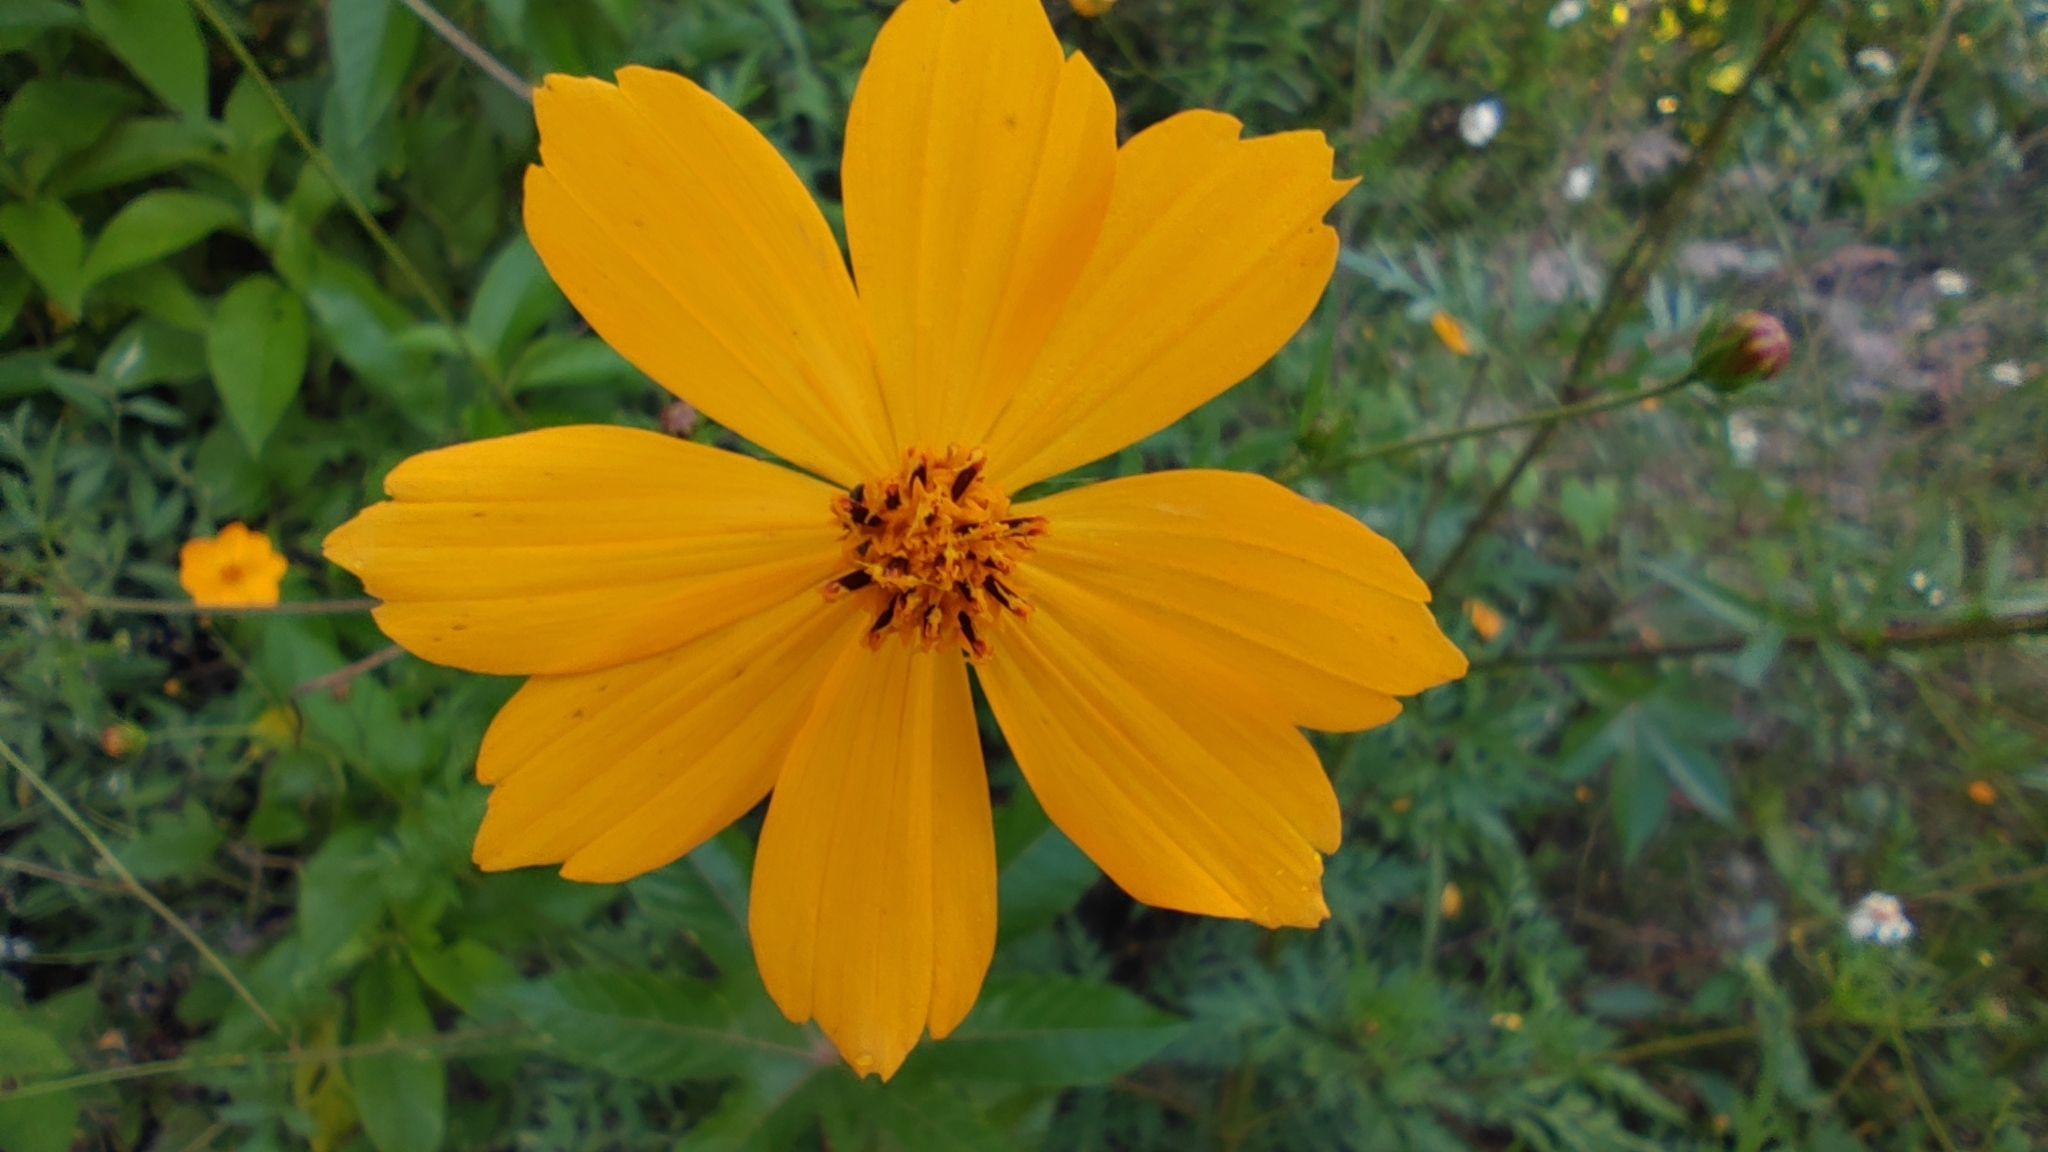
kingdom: Plantae
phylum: Tracheophyta
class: Magnoliopsida
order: Asterales
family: Asteraceae
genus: Cosmos
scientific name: Cosmos sulphureus
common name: Sulphur cosmos
